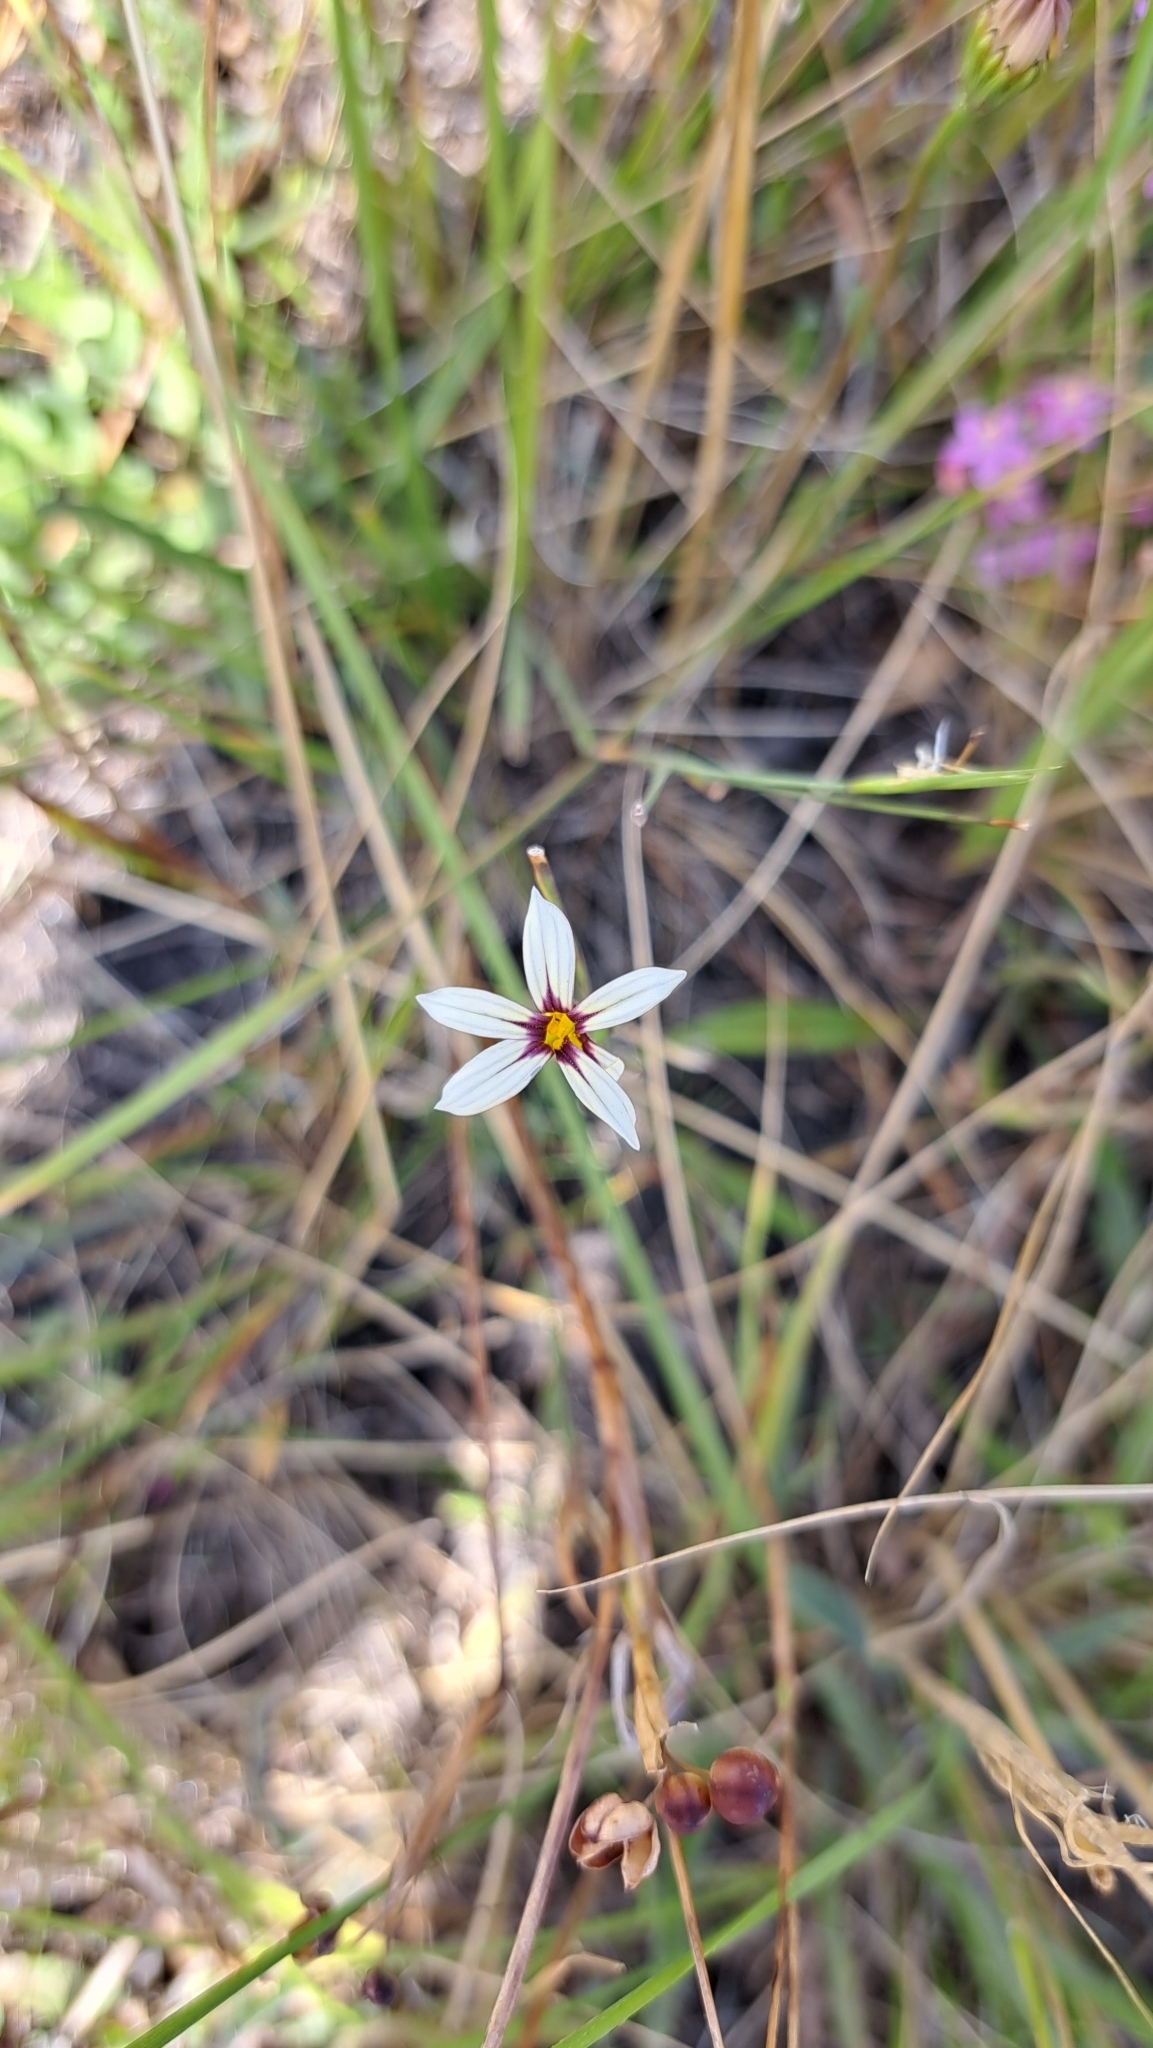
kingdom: Plantae
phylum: Tracheophyta
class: Liliopsida
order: Asparagales
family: Iridaceae
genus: Sisyrinchium
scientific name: Sisyrinchium micranthum
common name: Bermuda pigroot
